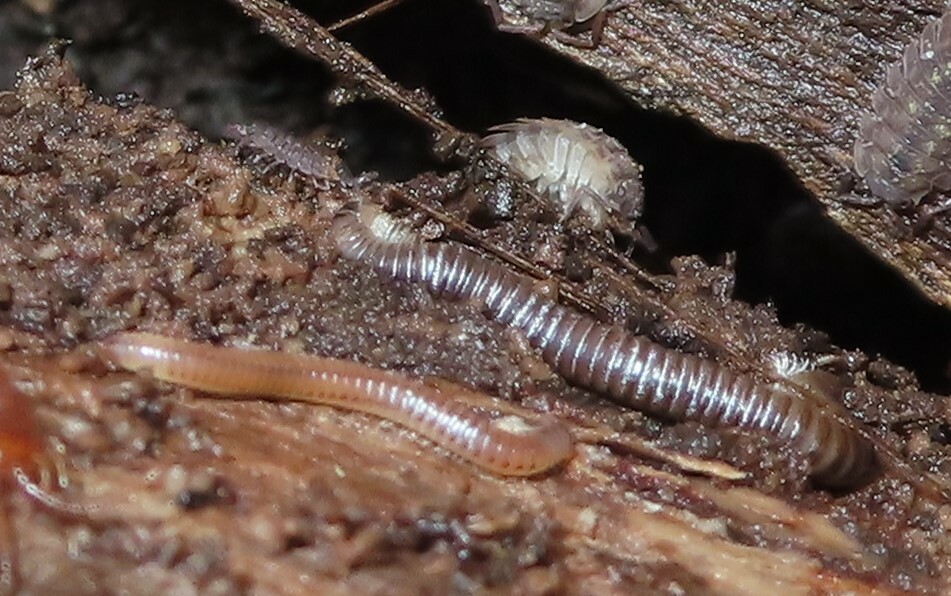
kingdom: Animalia
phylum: Arthropoda
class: Malacostraca
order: Isopoda
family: Oniscidae
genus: Oniscus
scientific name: Oniscus asellus
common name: Common shiny woodlouse
